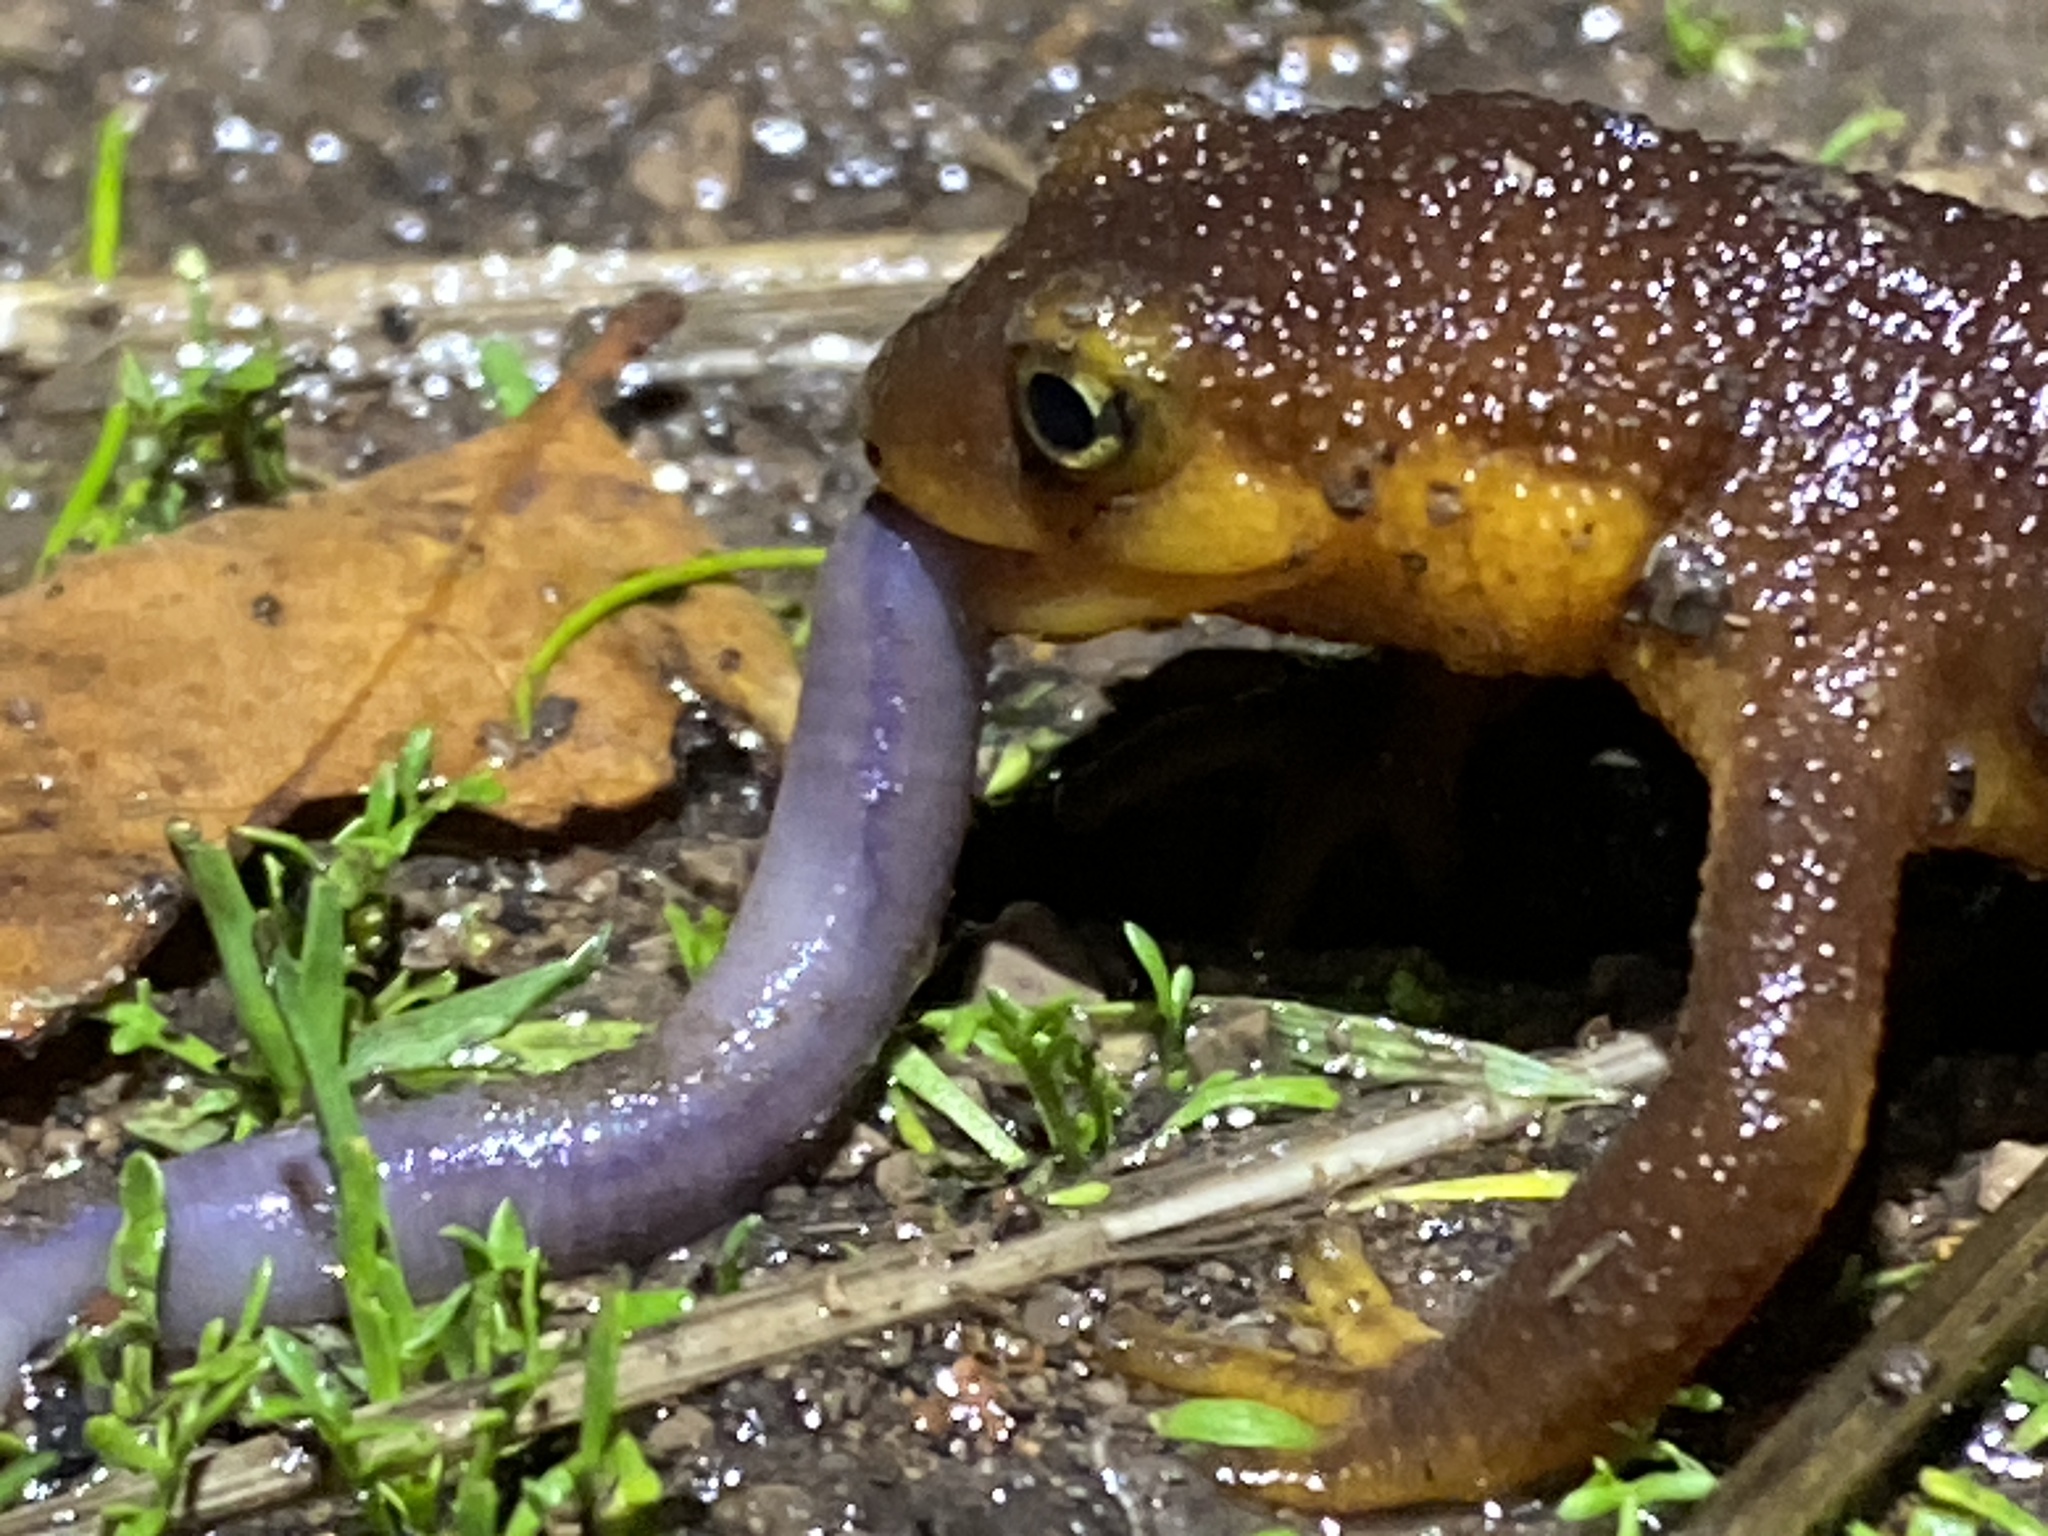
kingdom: Animalia
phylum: Chordata
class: Amphibia
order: Caudata
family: Salamandridae
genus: Taricha
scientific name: Taricha torosa
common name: California newt
